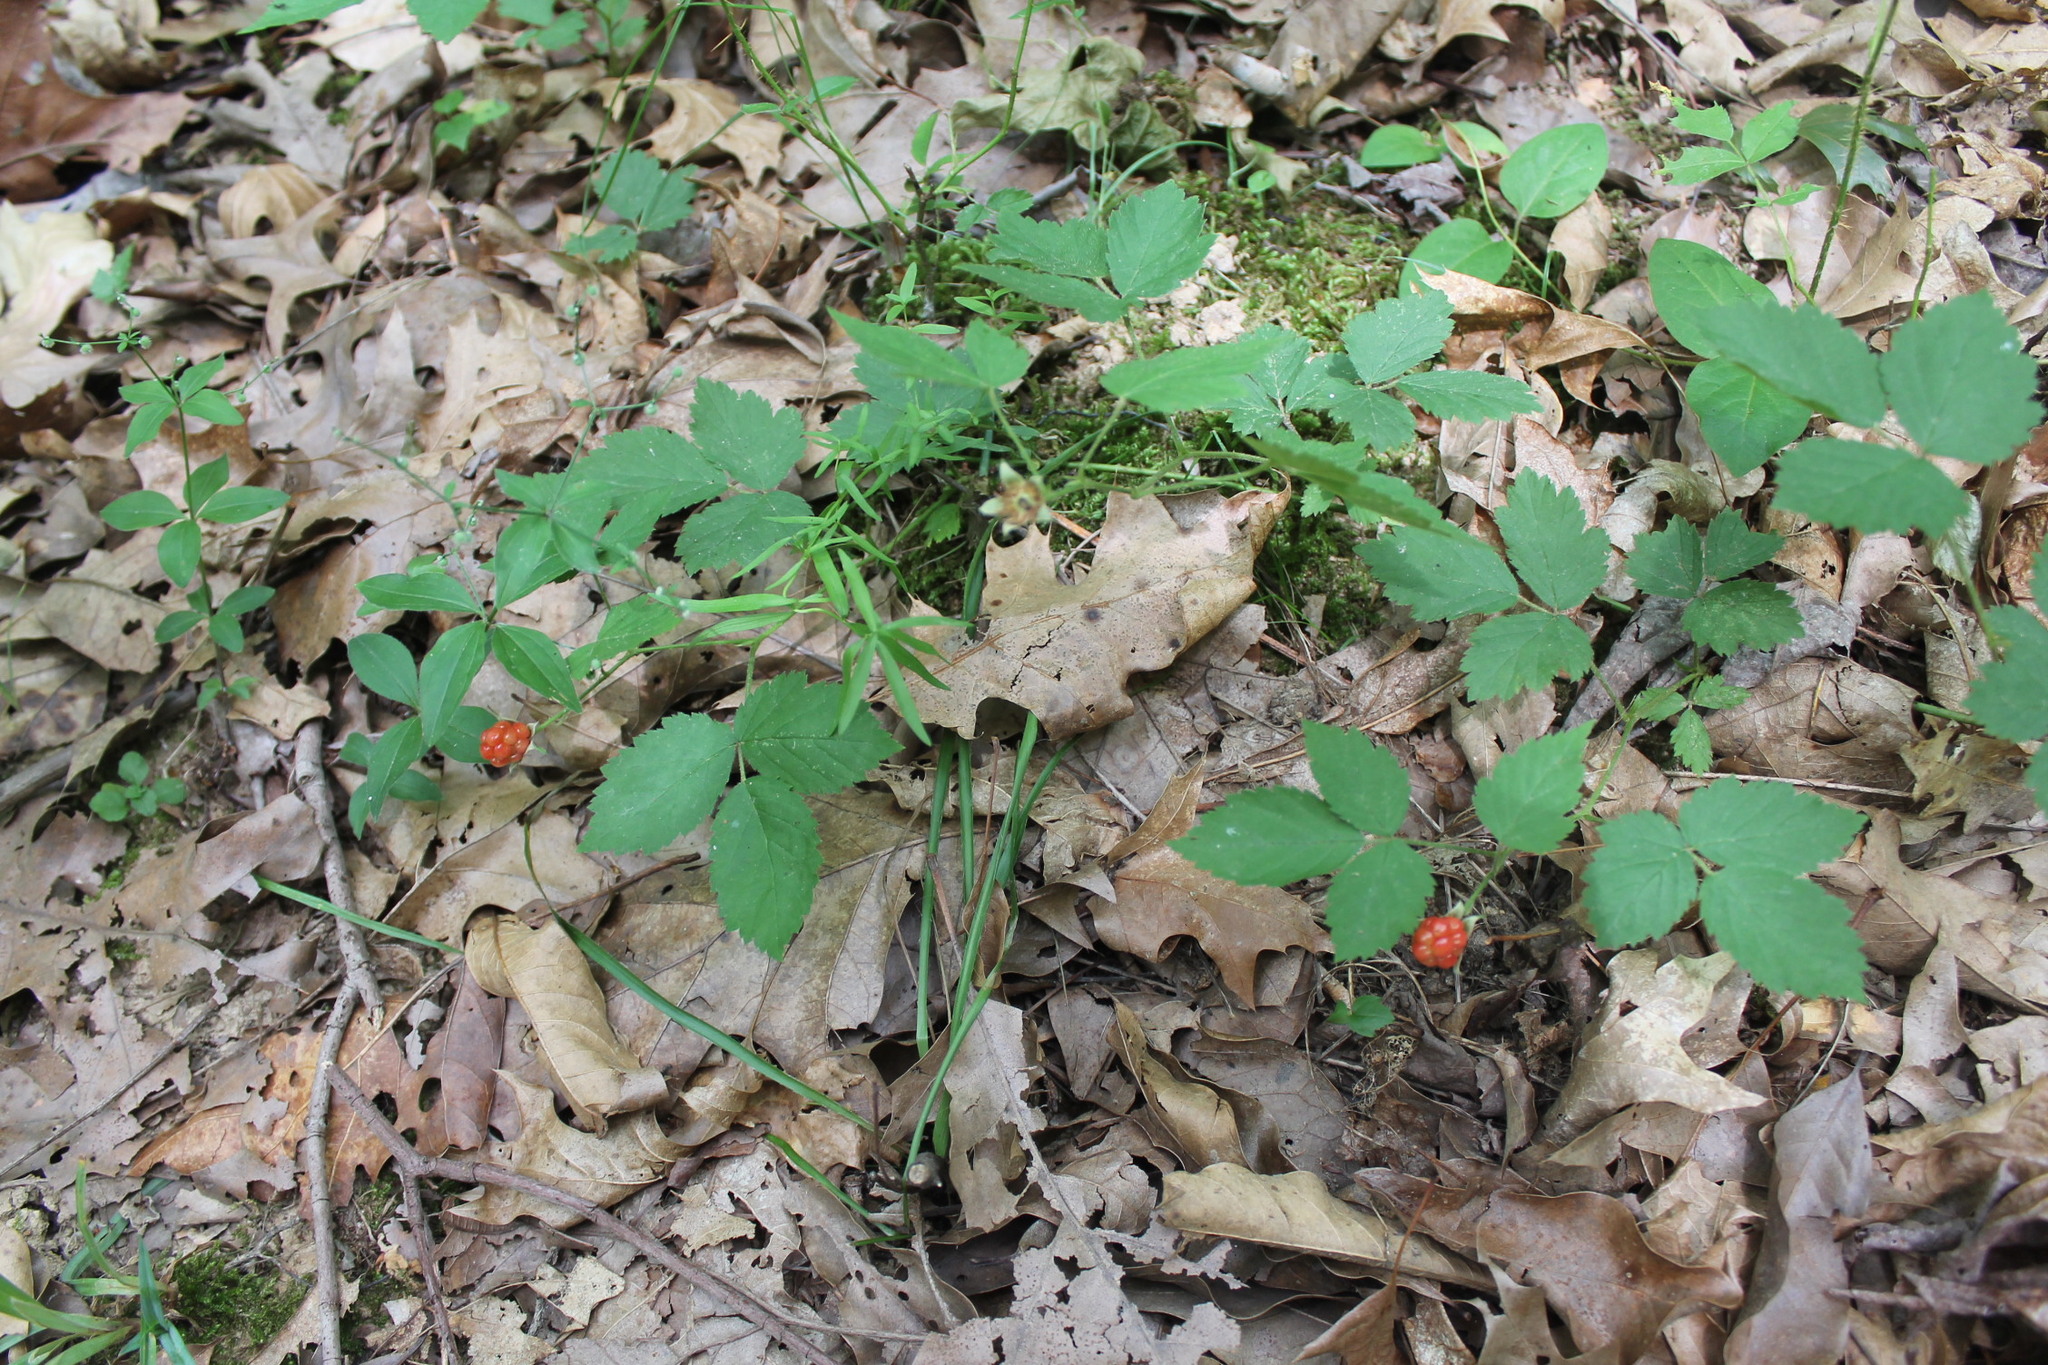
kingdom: Plantae
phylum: Tracheophyta
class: Magnoliopsida
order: Rosales
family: Rosaceae
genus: Rubus
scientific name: Rubus flagellaris
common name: American dewberry
